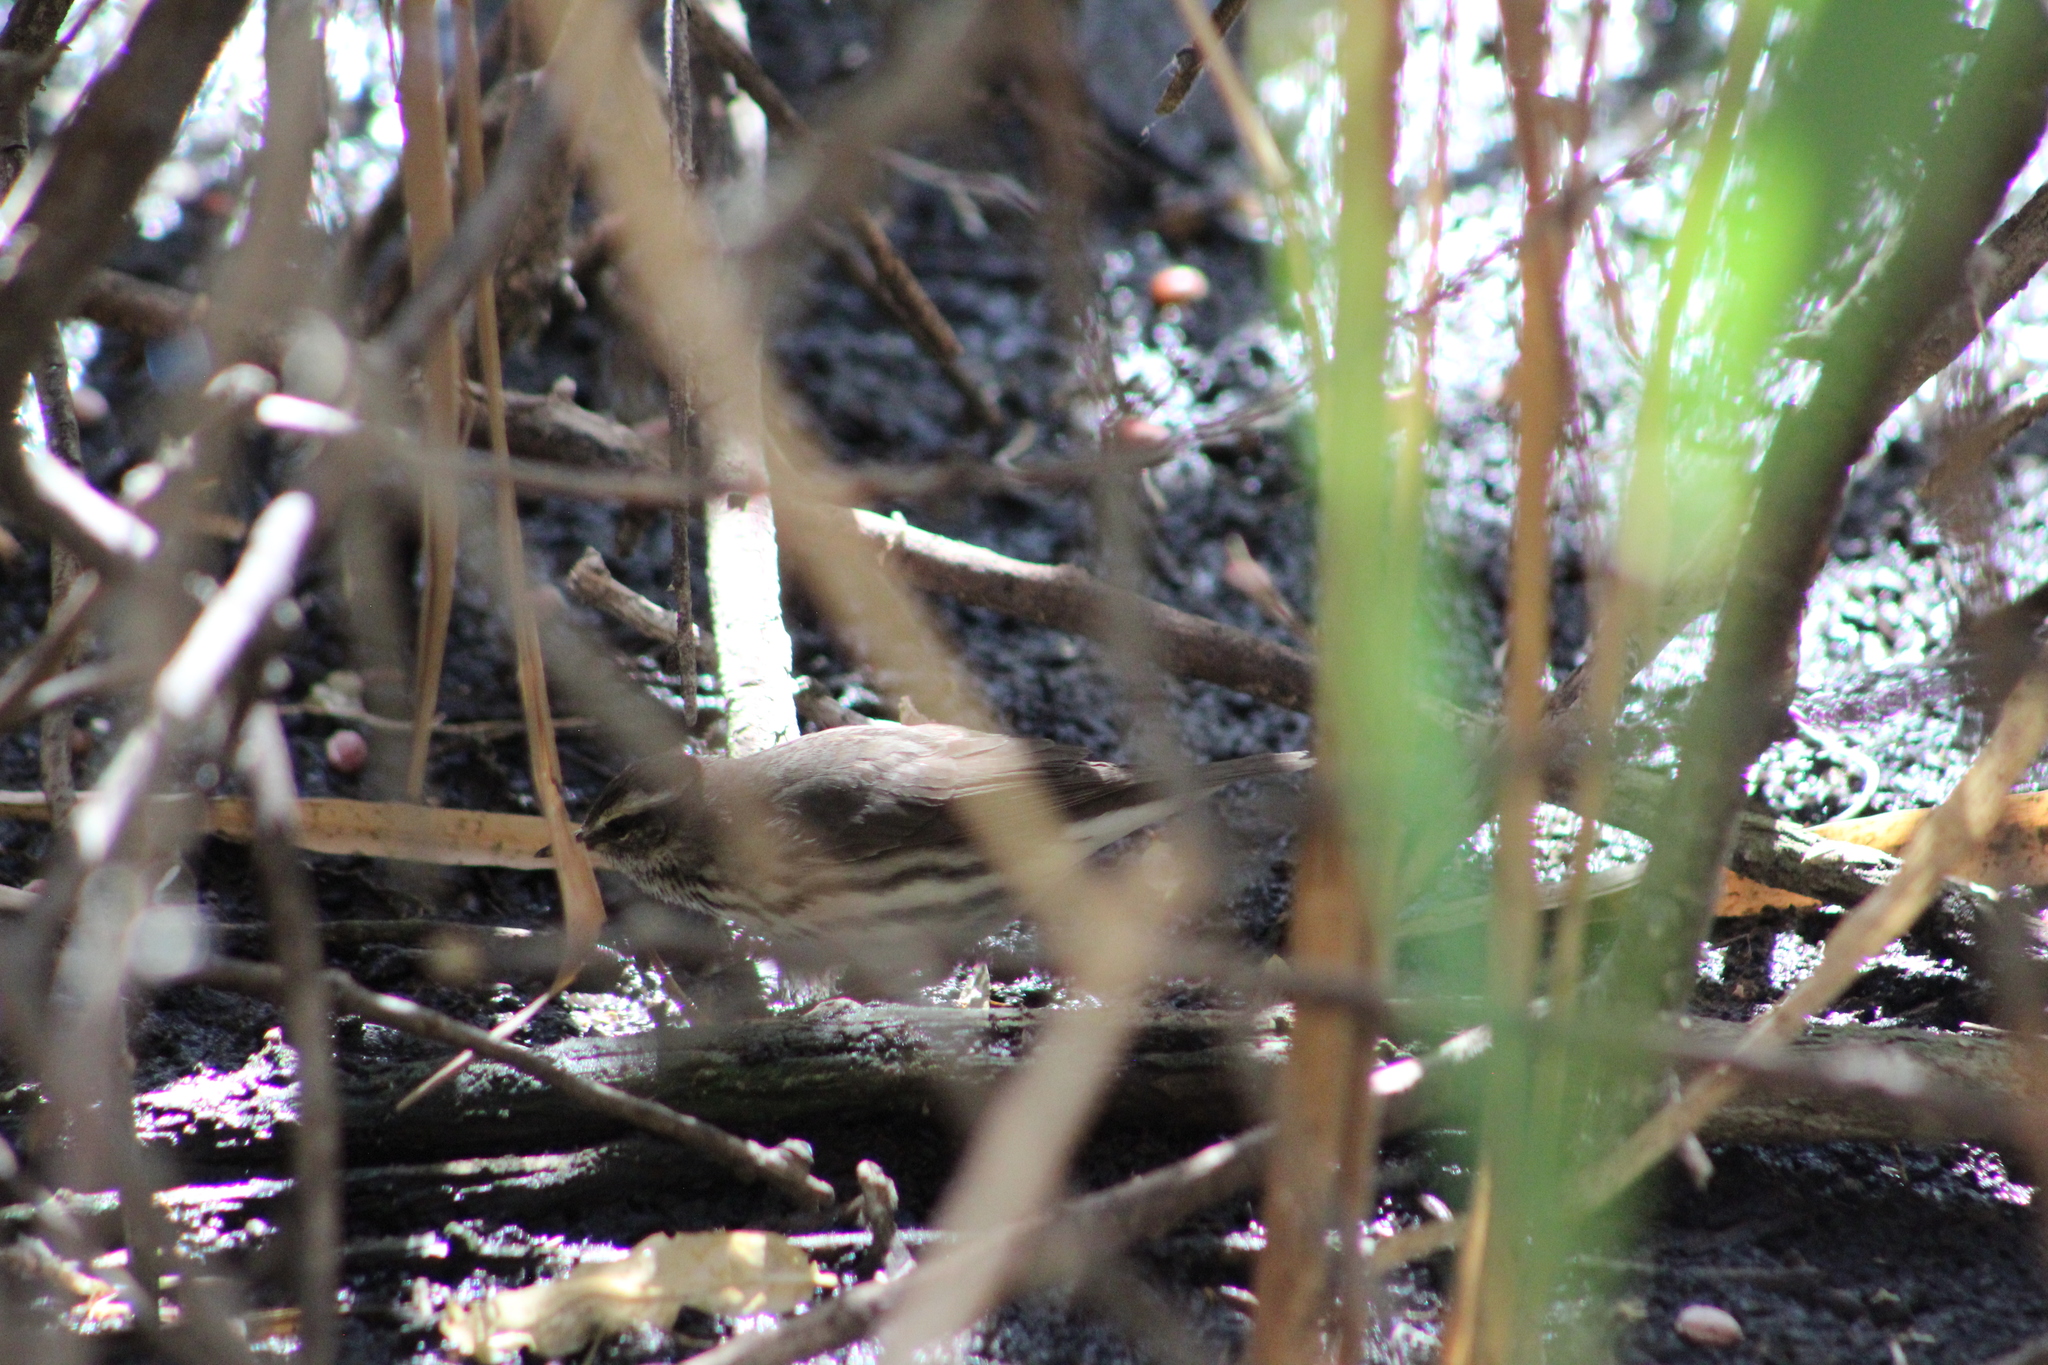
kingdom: Animalia
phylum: Chordata
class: Aves
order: Passeriformes
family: Parulidae
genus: Parkesia
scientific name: Parkesia noveboracensis
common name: Northern waterthrush
